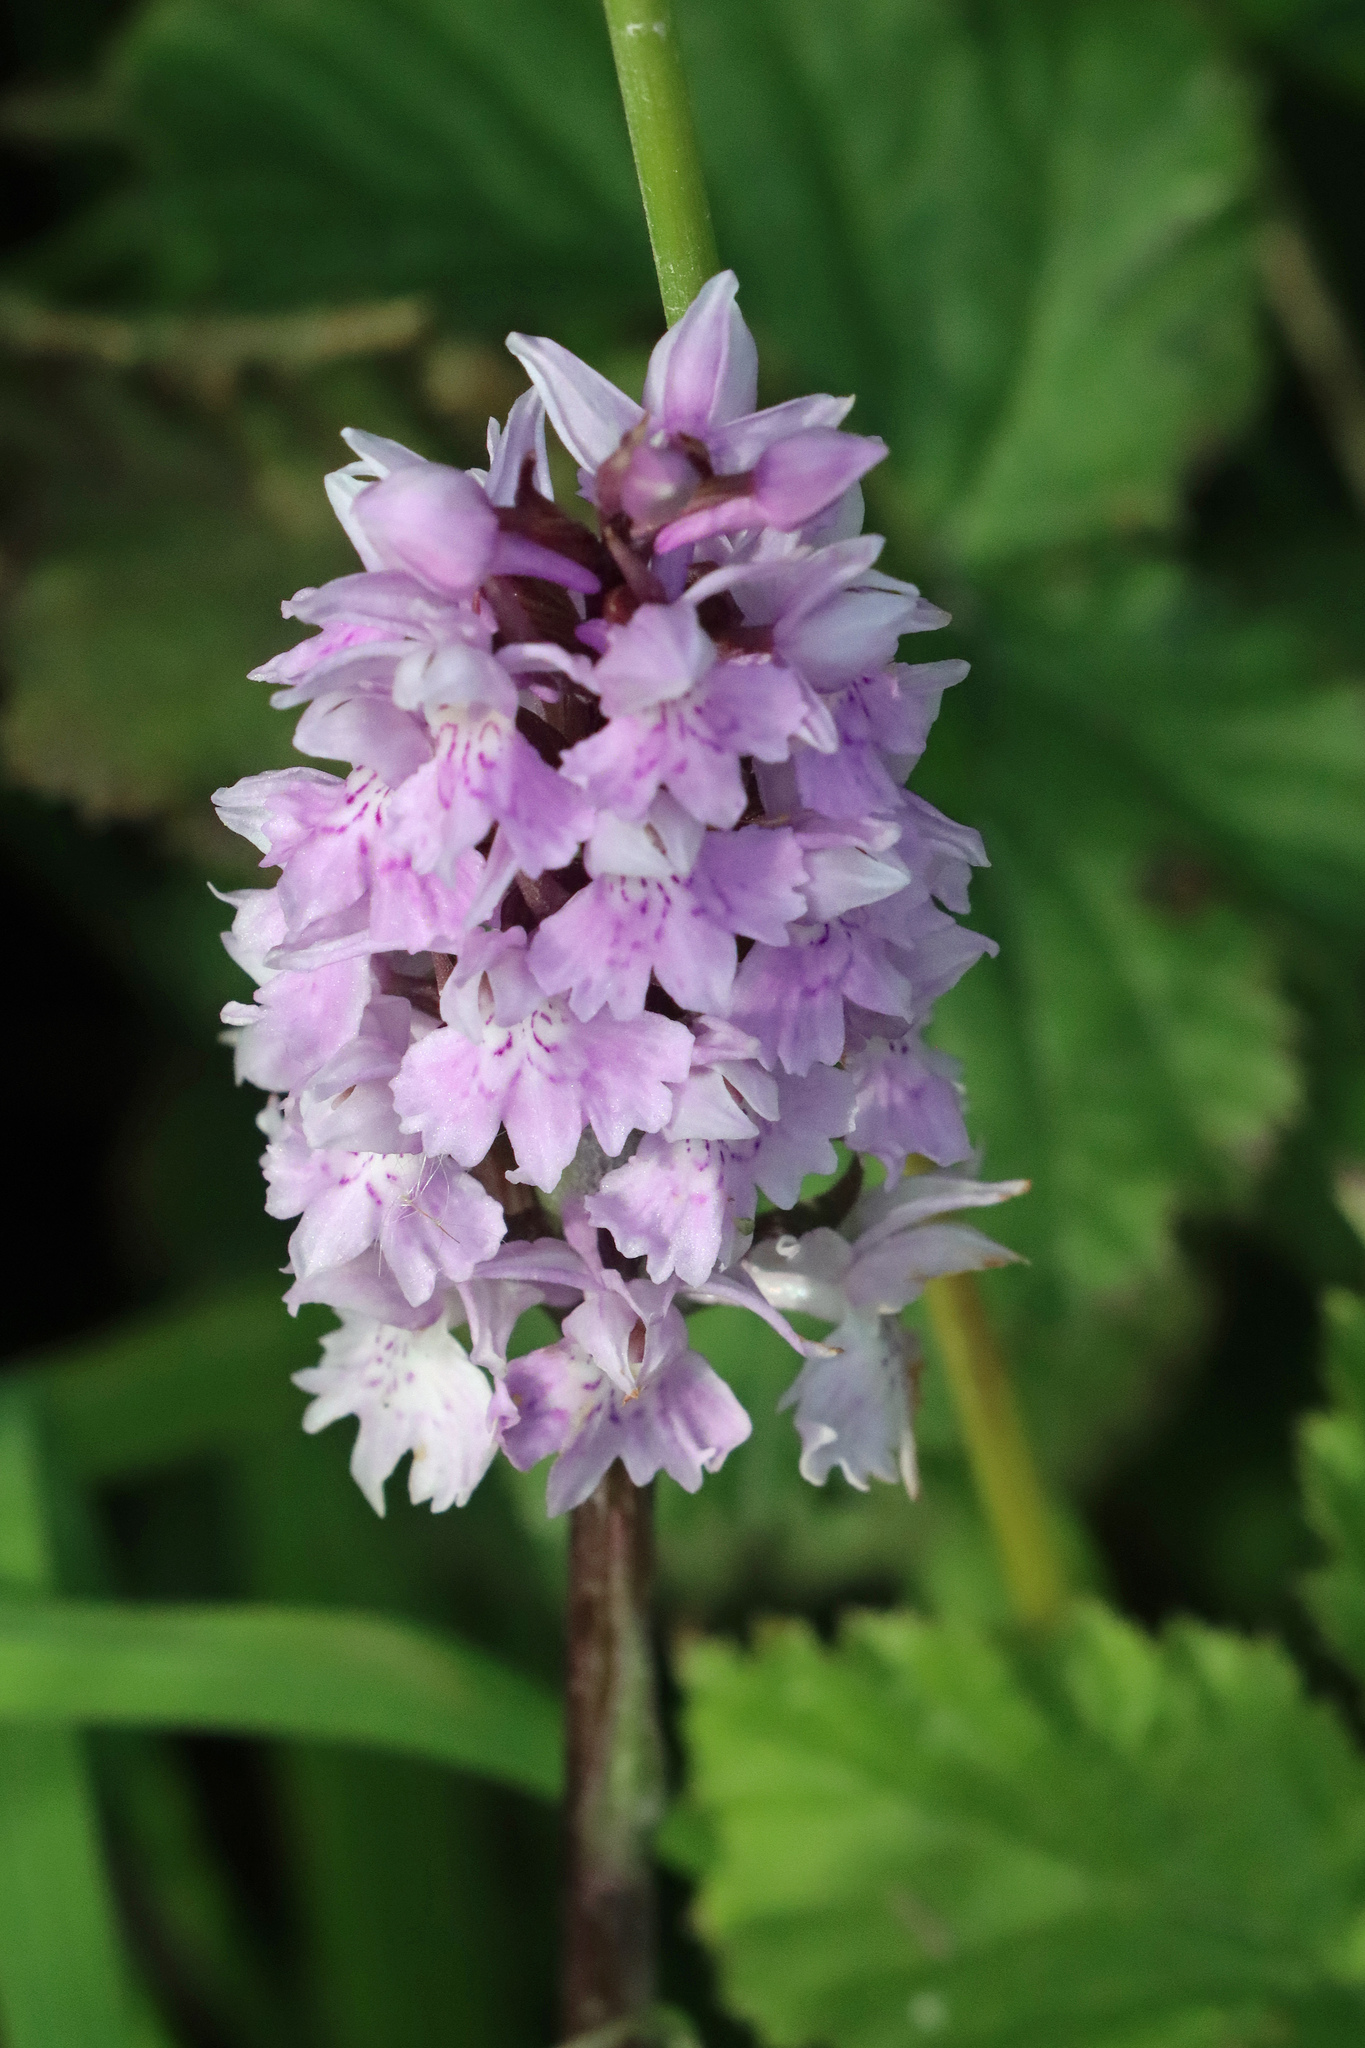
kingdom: Plantae
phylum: Tracheophyta
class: Liliopsida
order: Asparagales
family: Orchidaceae
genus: Dactylorhiza
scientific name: Dactylorhiza maculata
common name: Heath spotted-orchid
